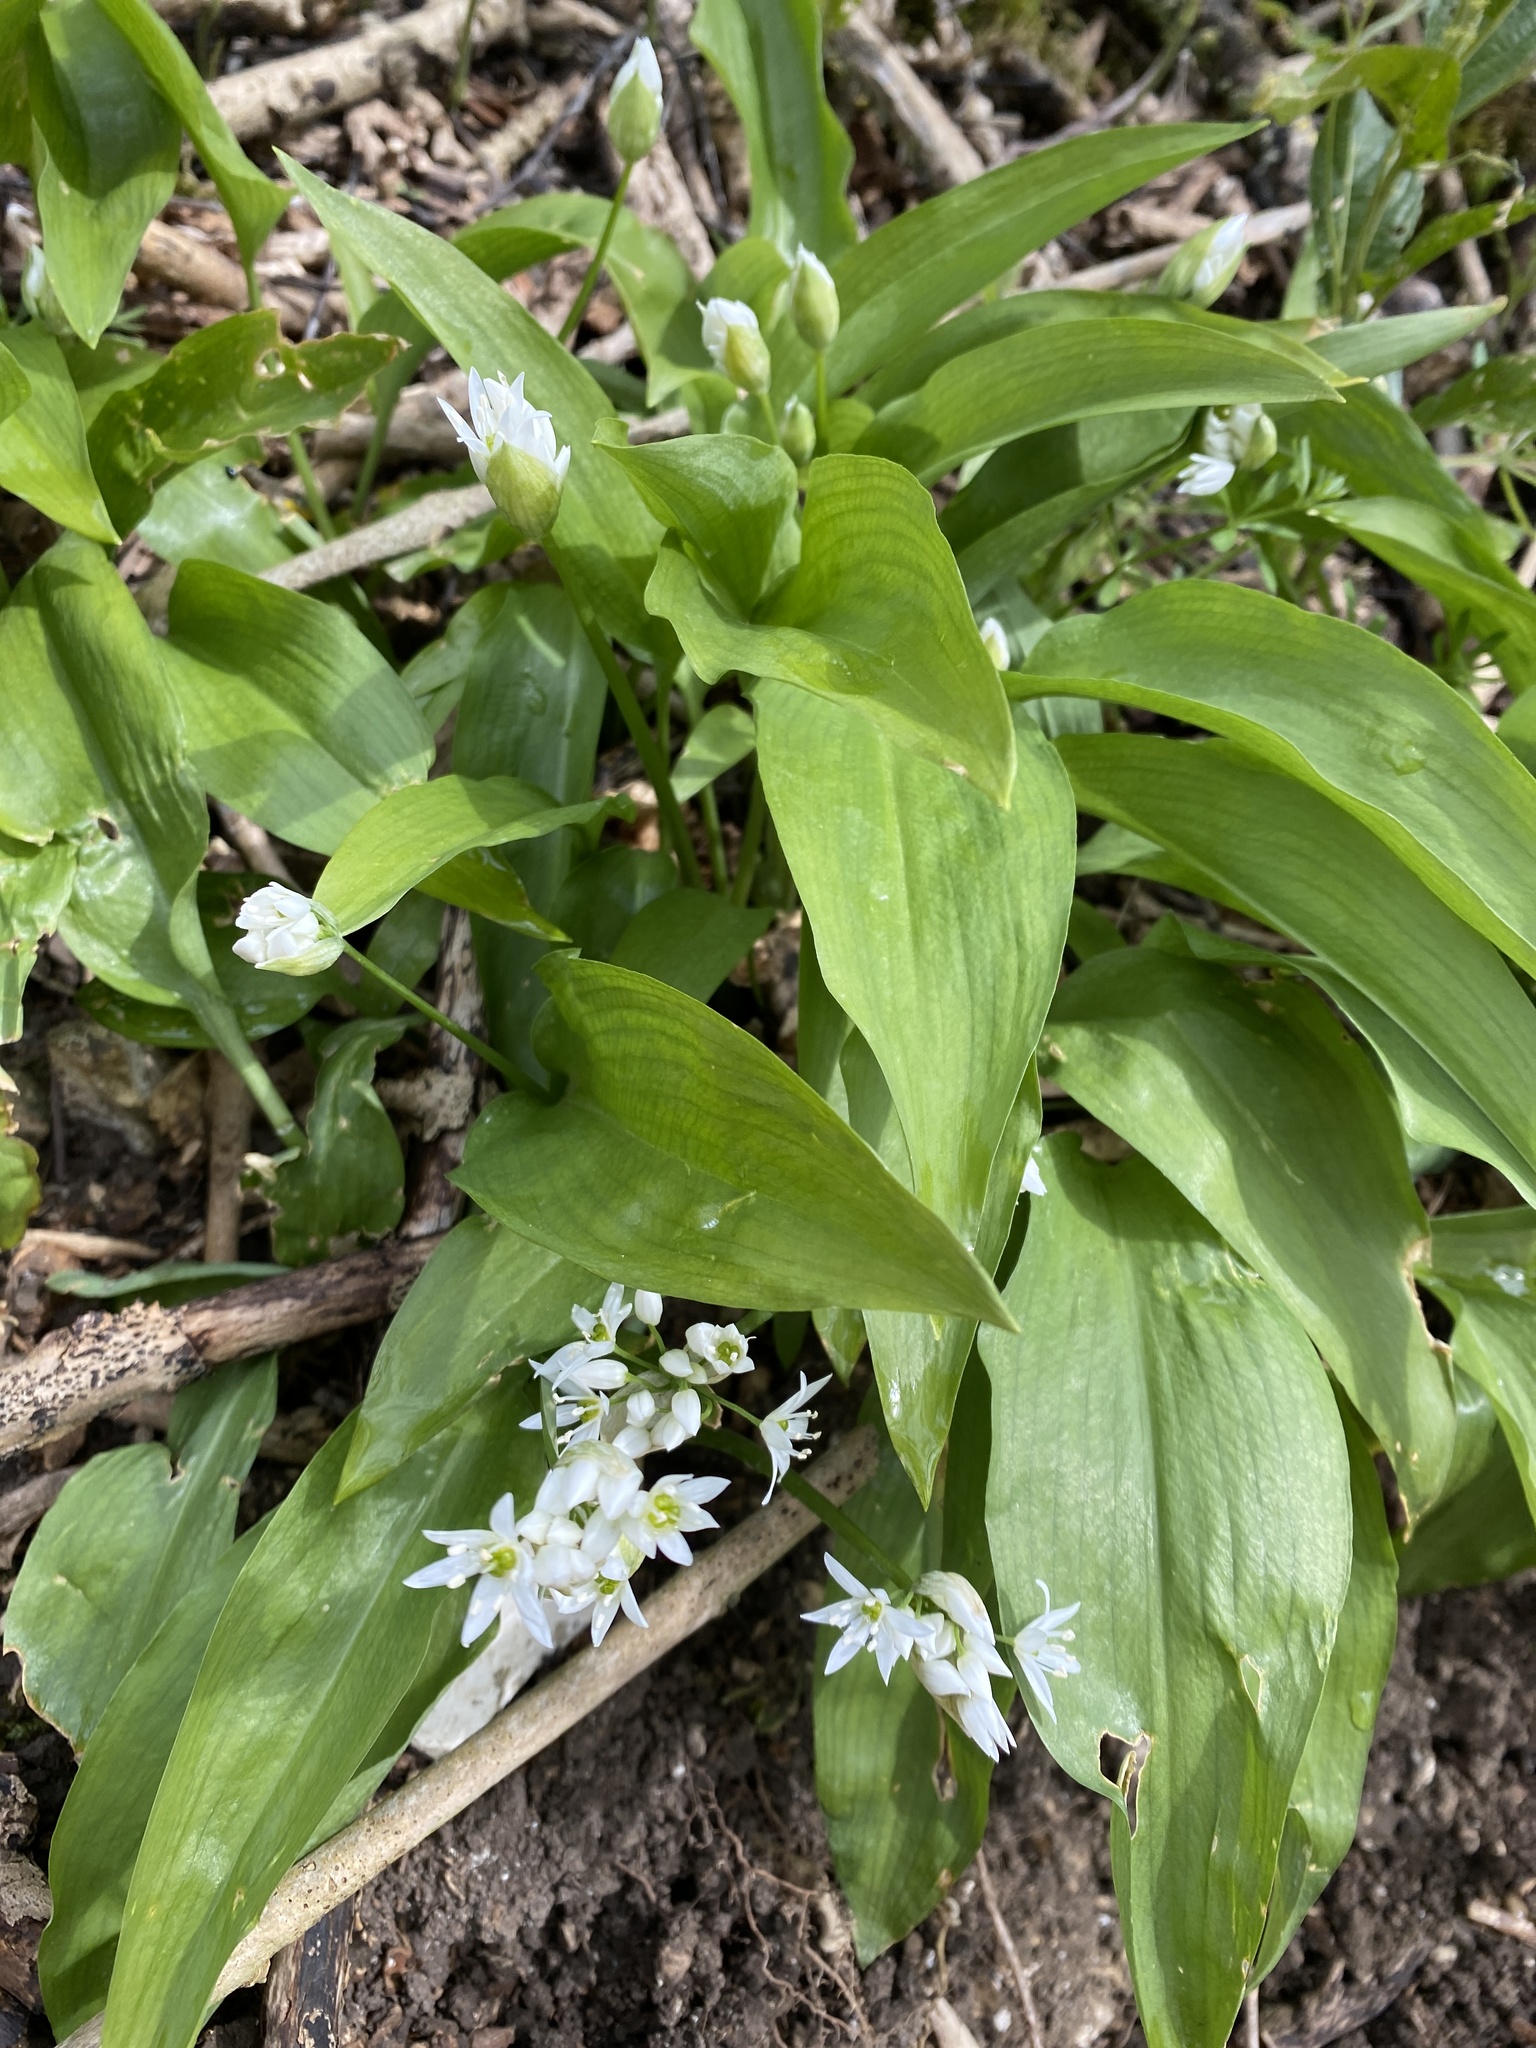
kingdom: Plantae
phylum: Tracheophyta
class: Liliopsida
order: Asparagales
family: Amaryllidaceae
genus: Allium
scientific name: Allium ursinum
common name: Ramsons
